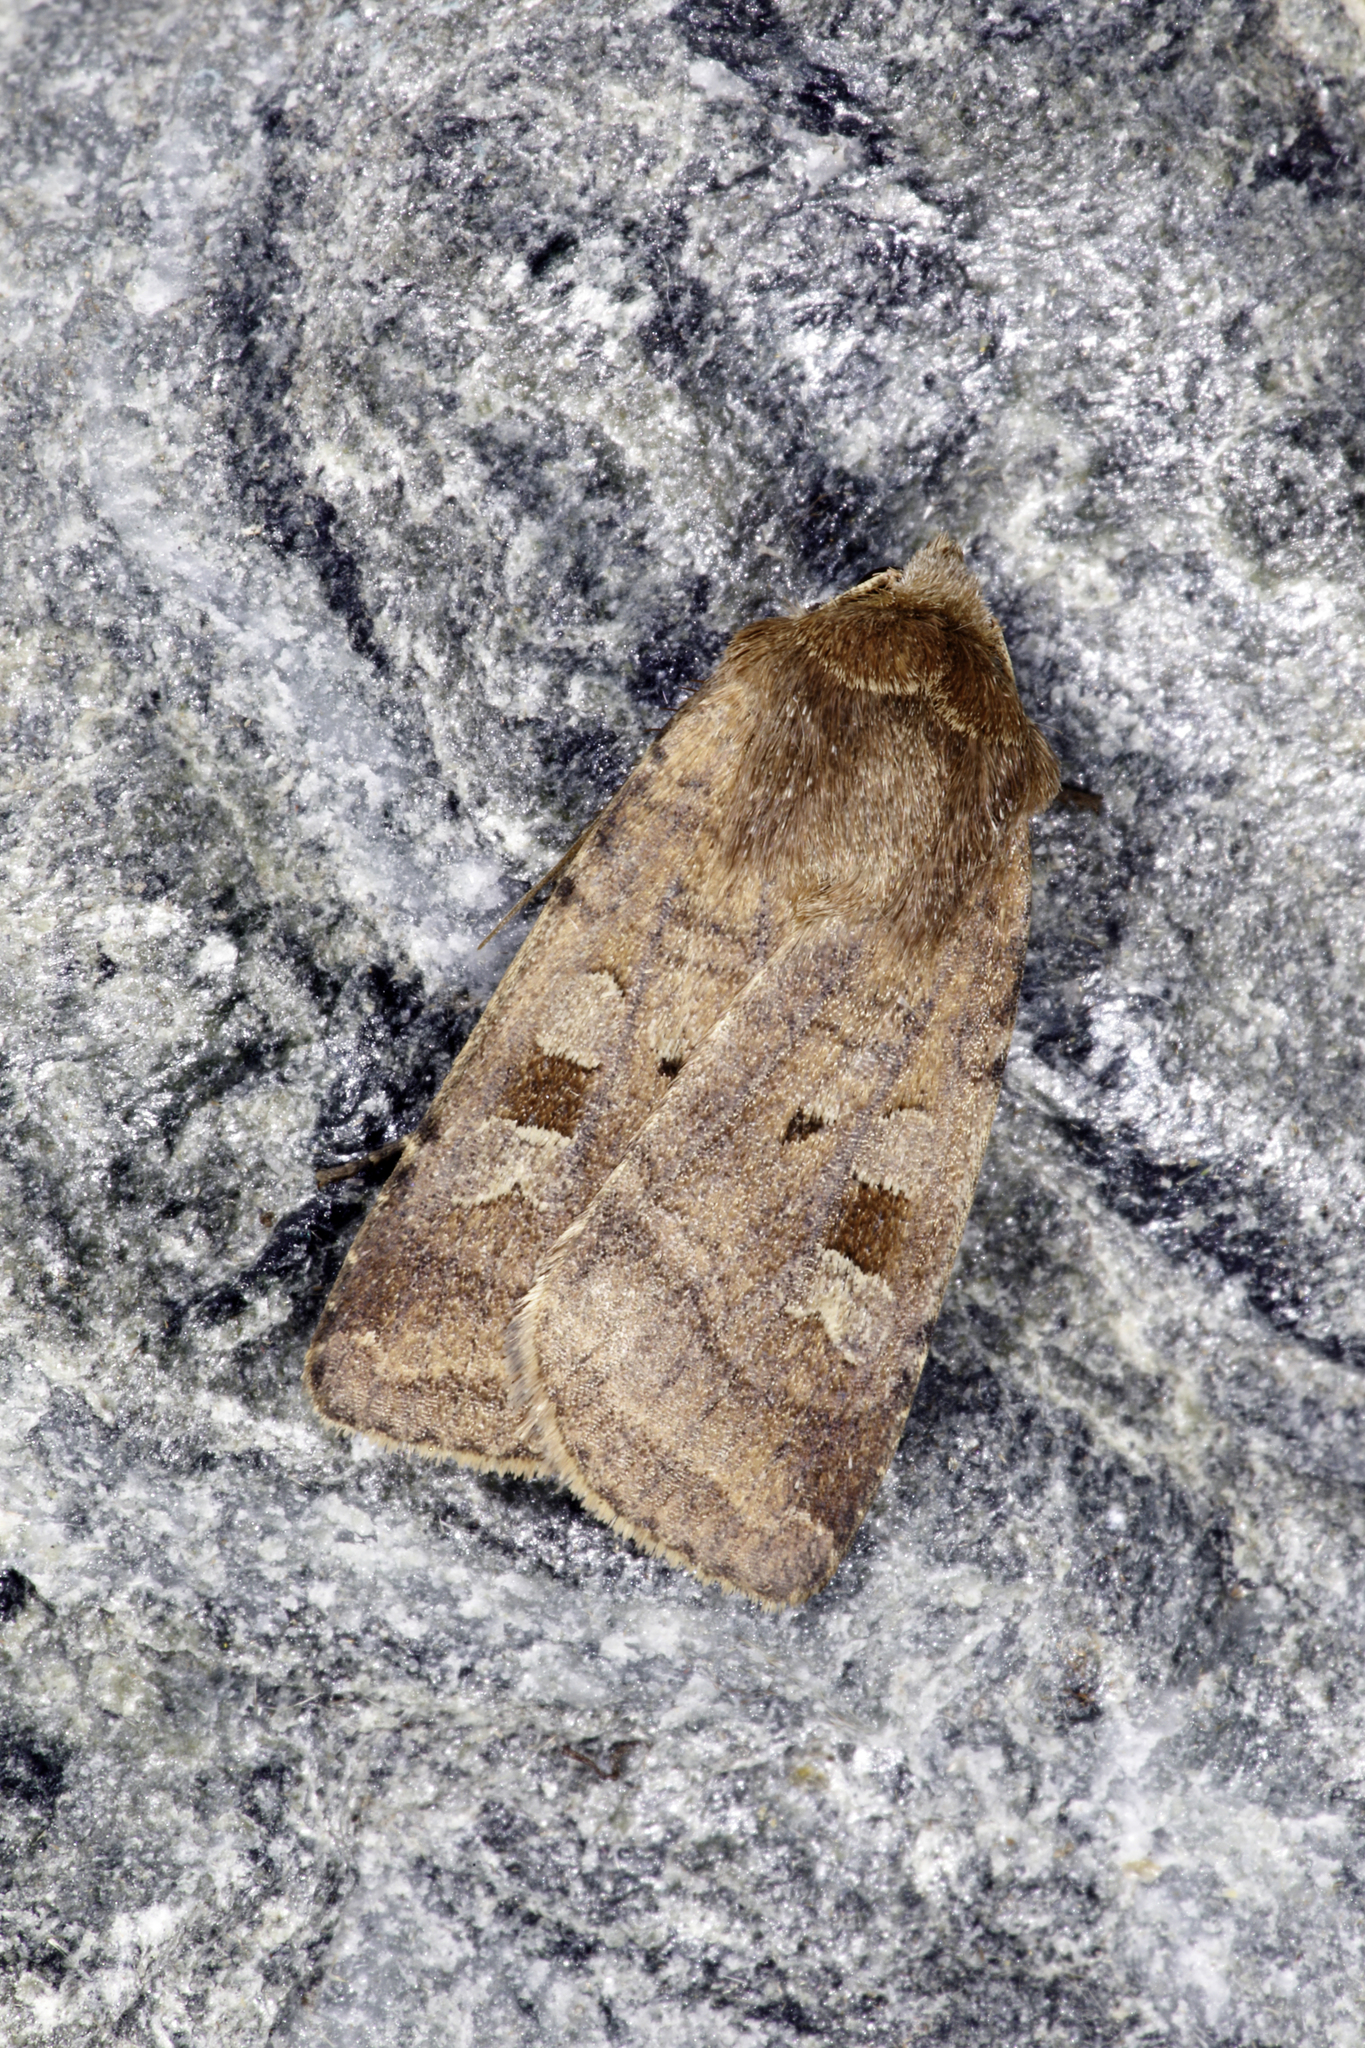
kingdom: Animalia
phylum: Arthropoda
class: Insecta
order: Lepidoptera
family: Noctuidae
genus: Diarsia
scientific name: Diarsia rubi
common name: Small square-spot
